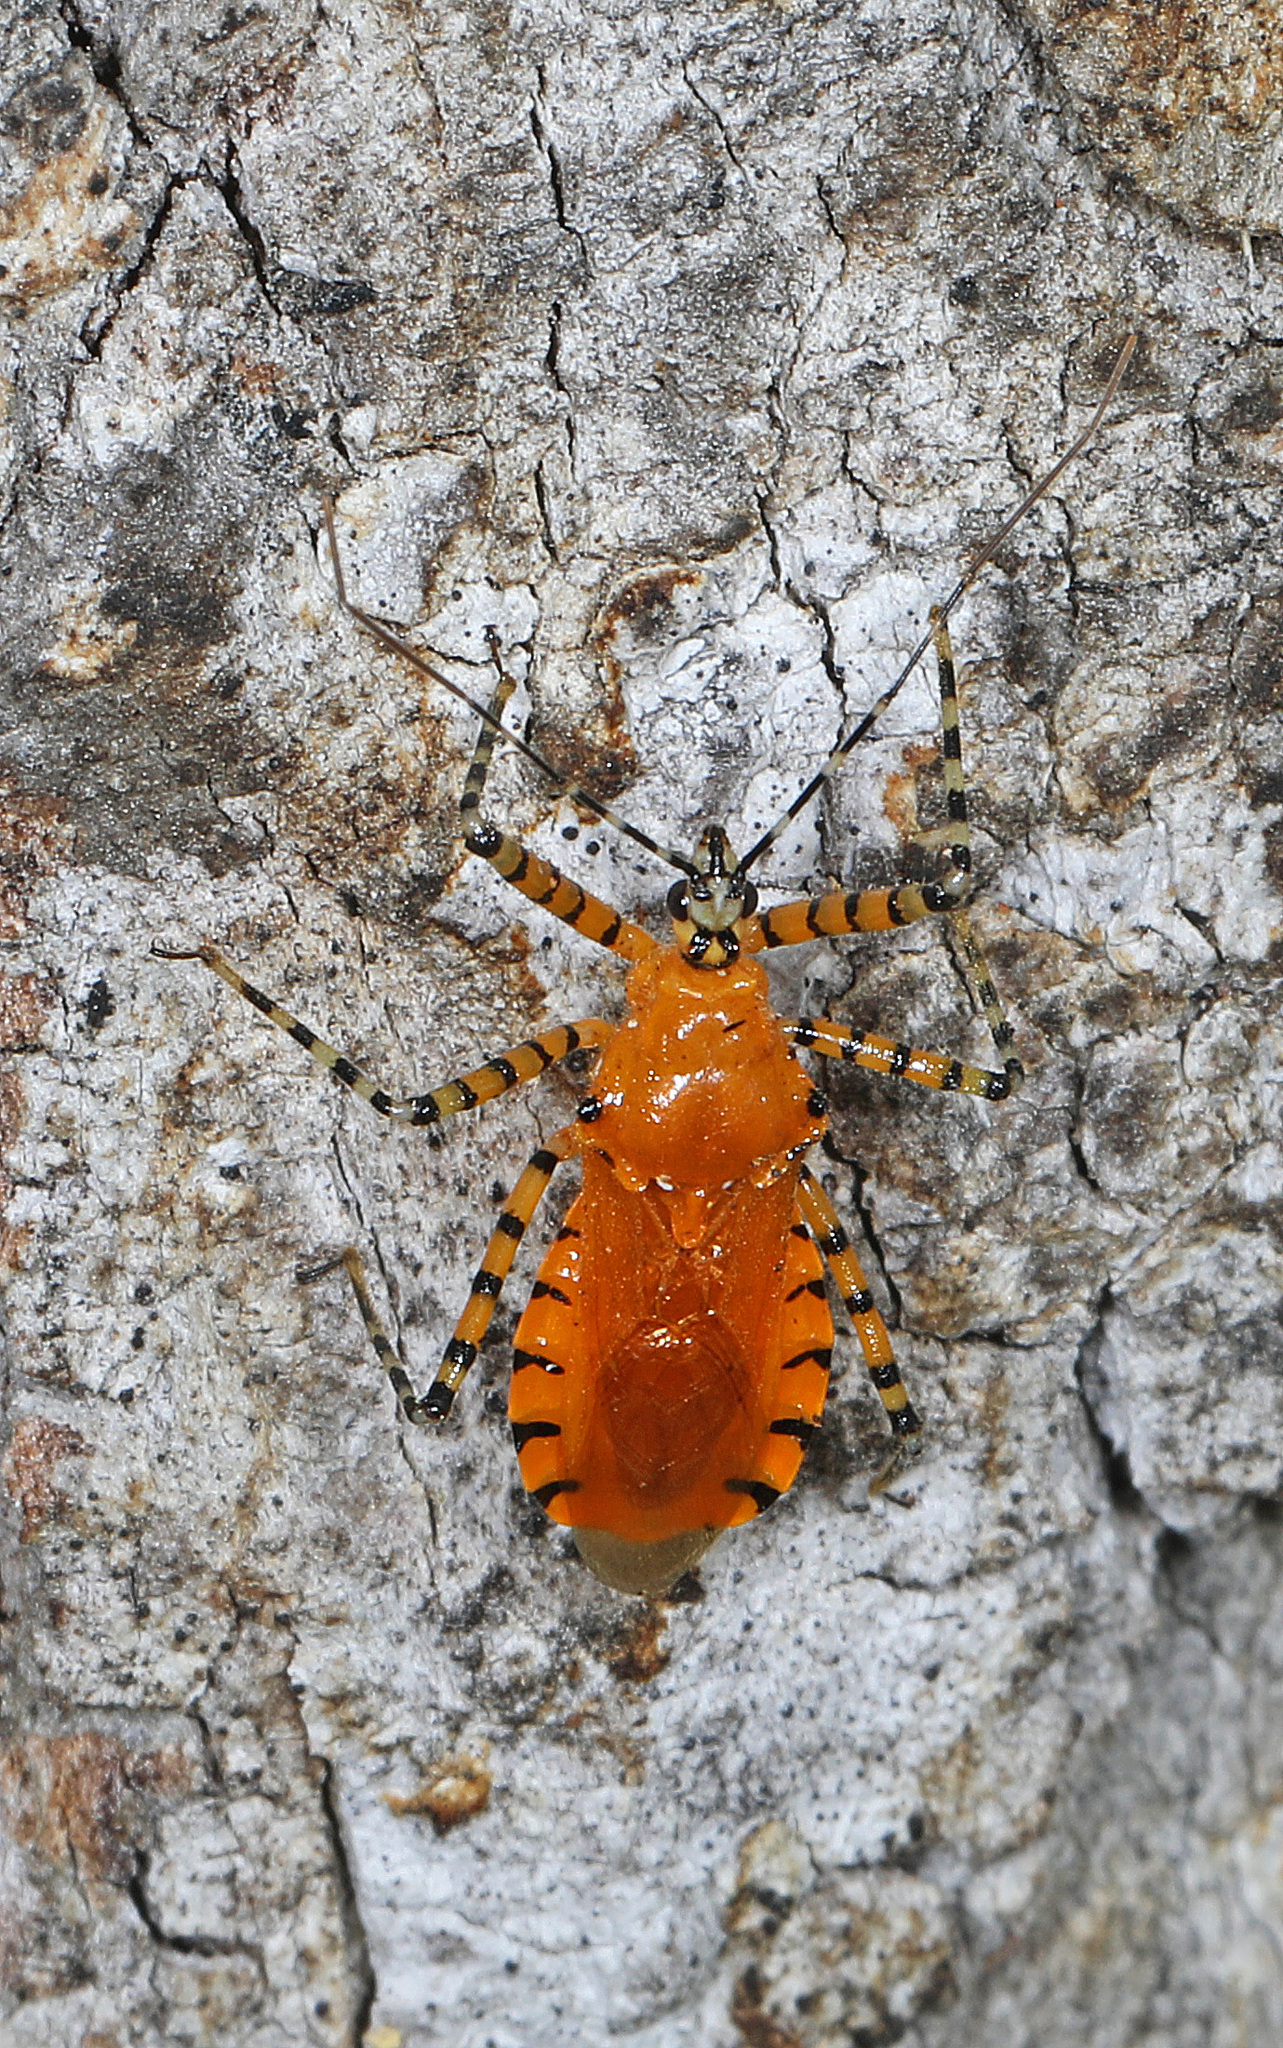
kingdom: Animalia
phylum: Arthropoda
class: Insecta
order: Hemiptera
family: Reduviidae
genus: Pselliopus
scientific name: Pselliopus barberi
